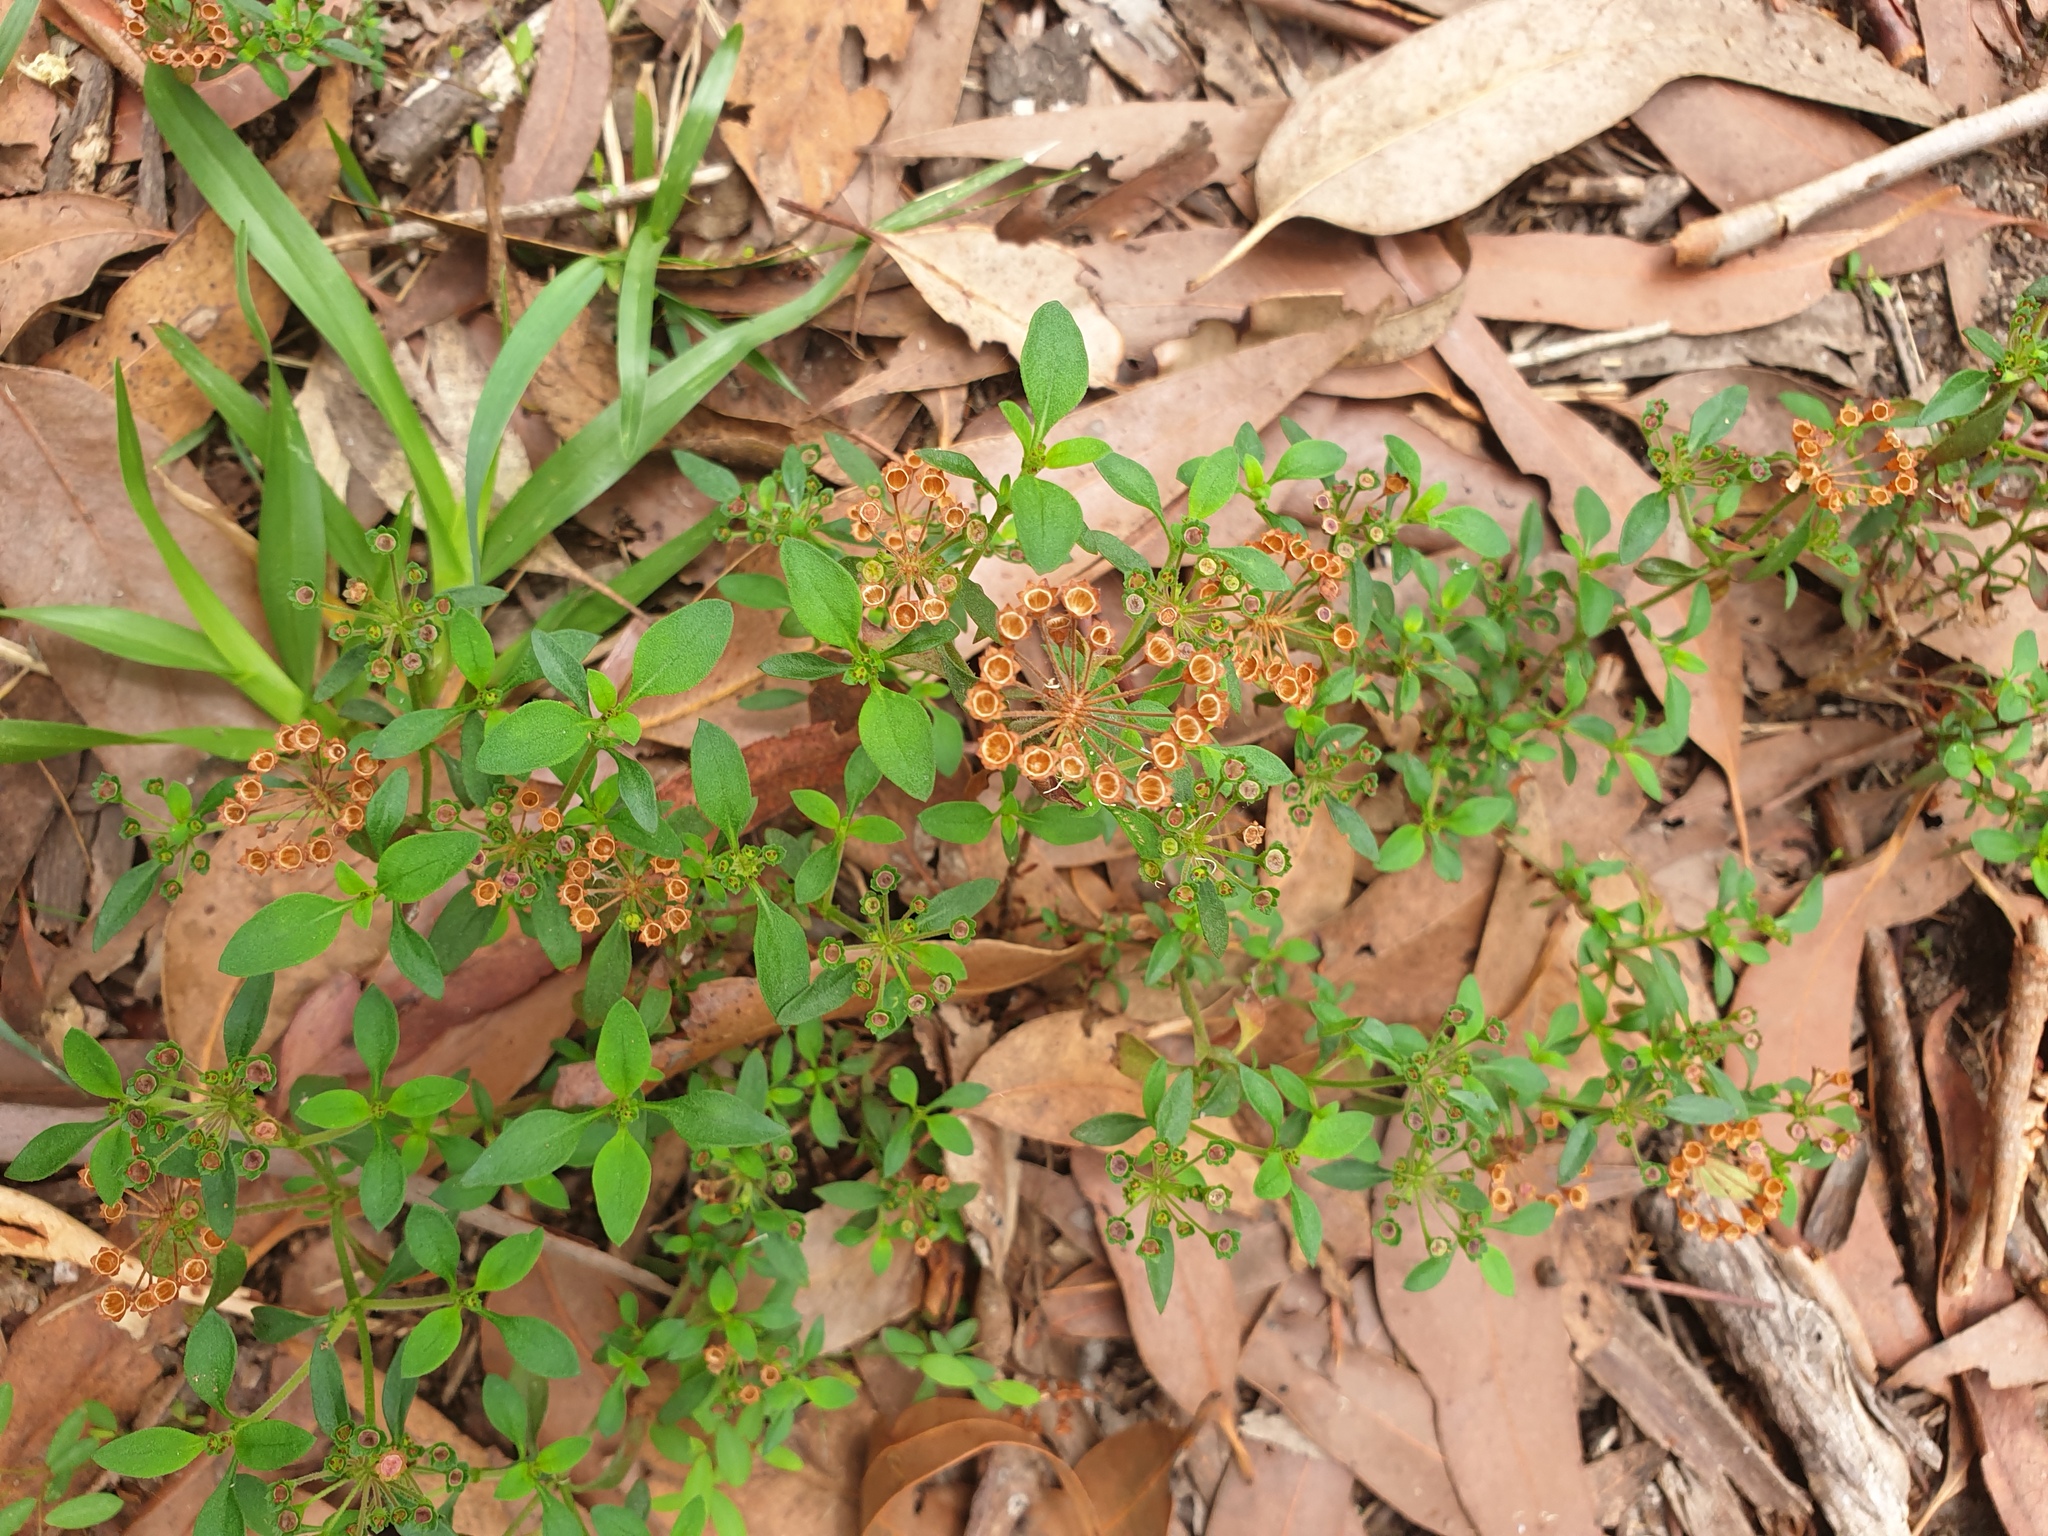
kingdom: Plantae
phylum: Tracheophyta
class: Magnoliopsida
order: Gentianales
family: Rubiaceae
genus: Pomax
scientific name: Pomax umbellata
